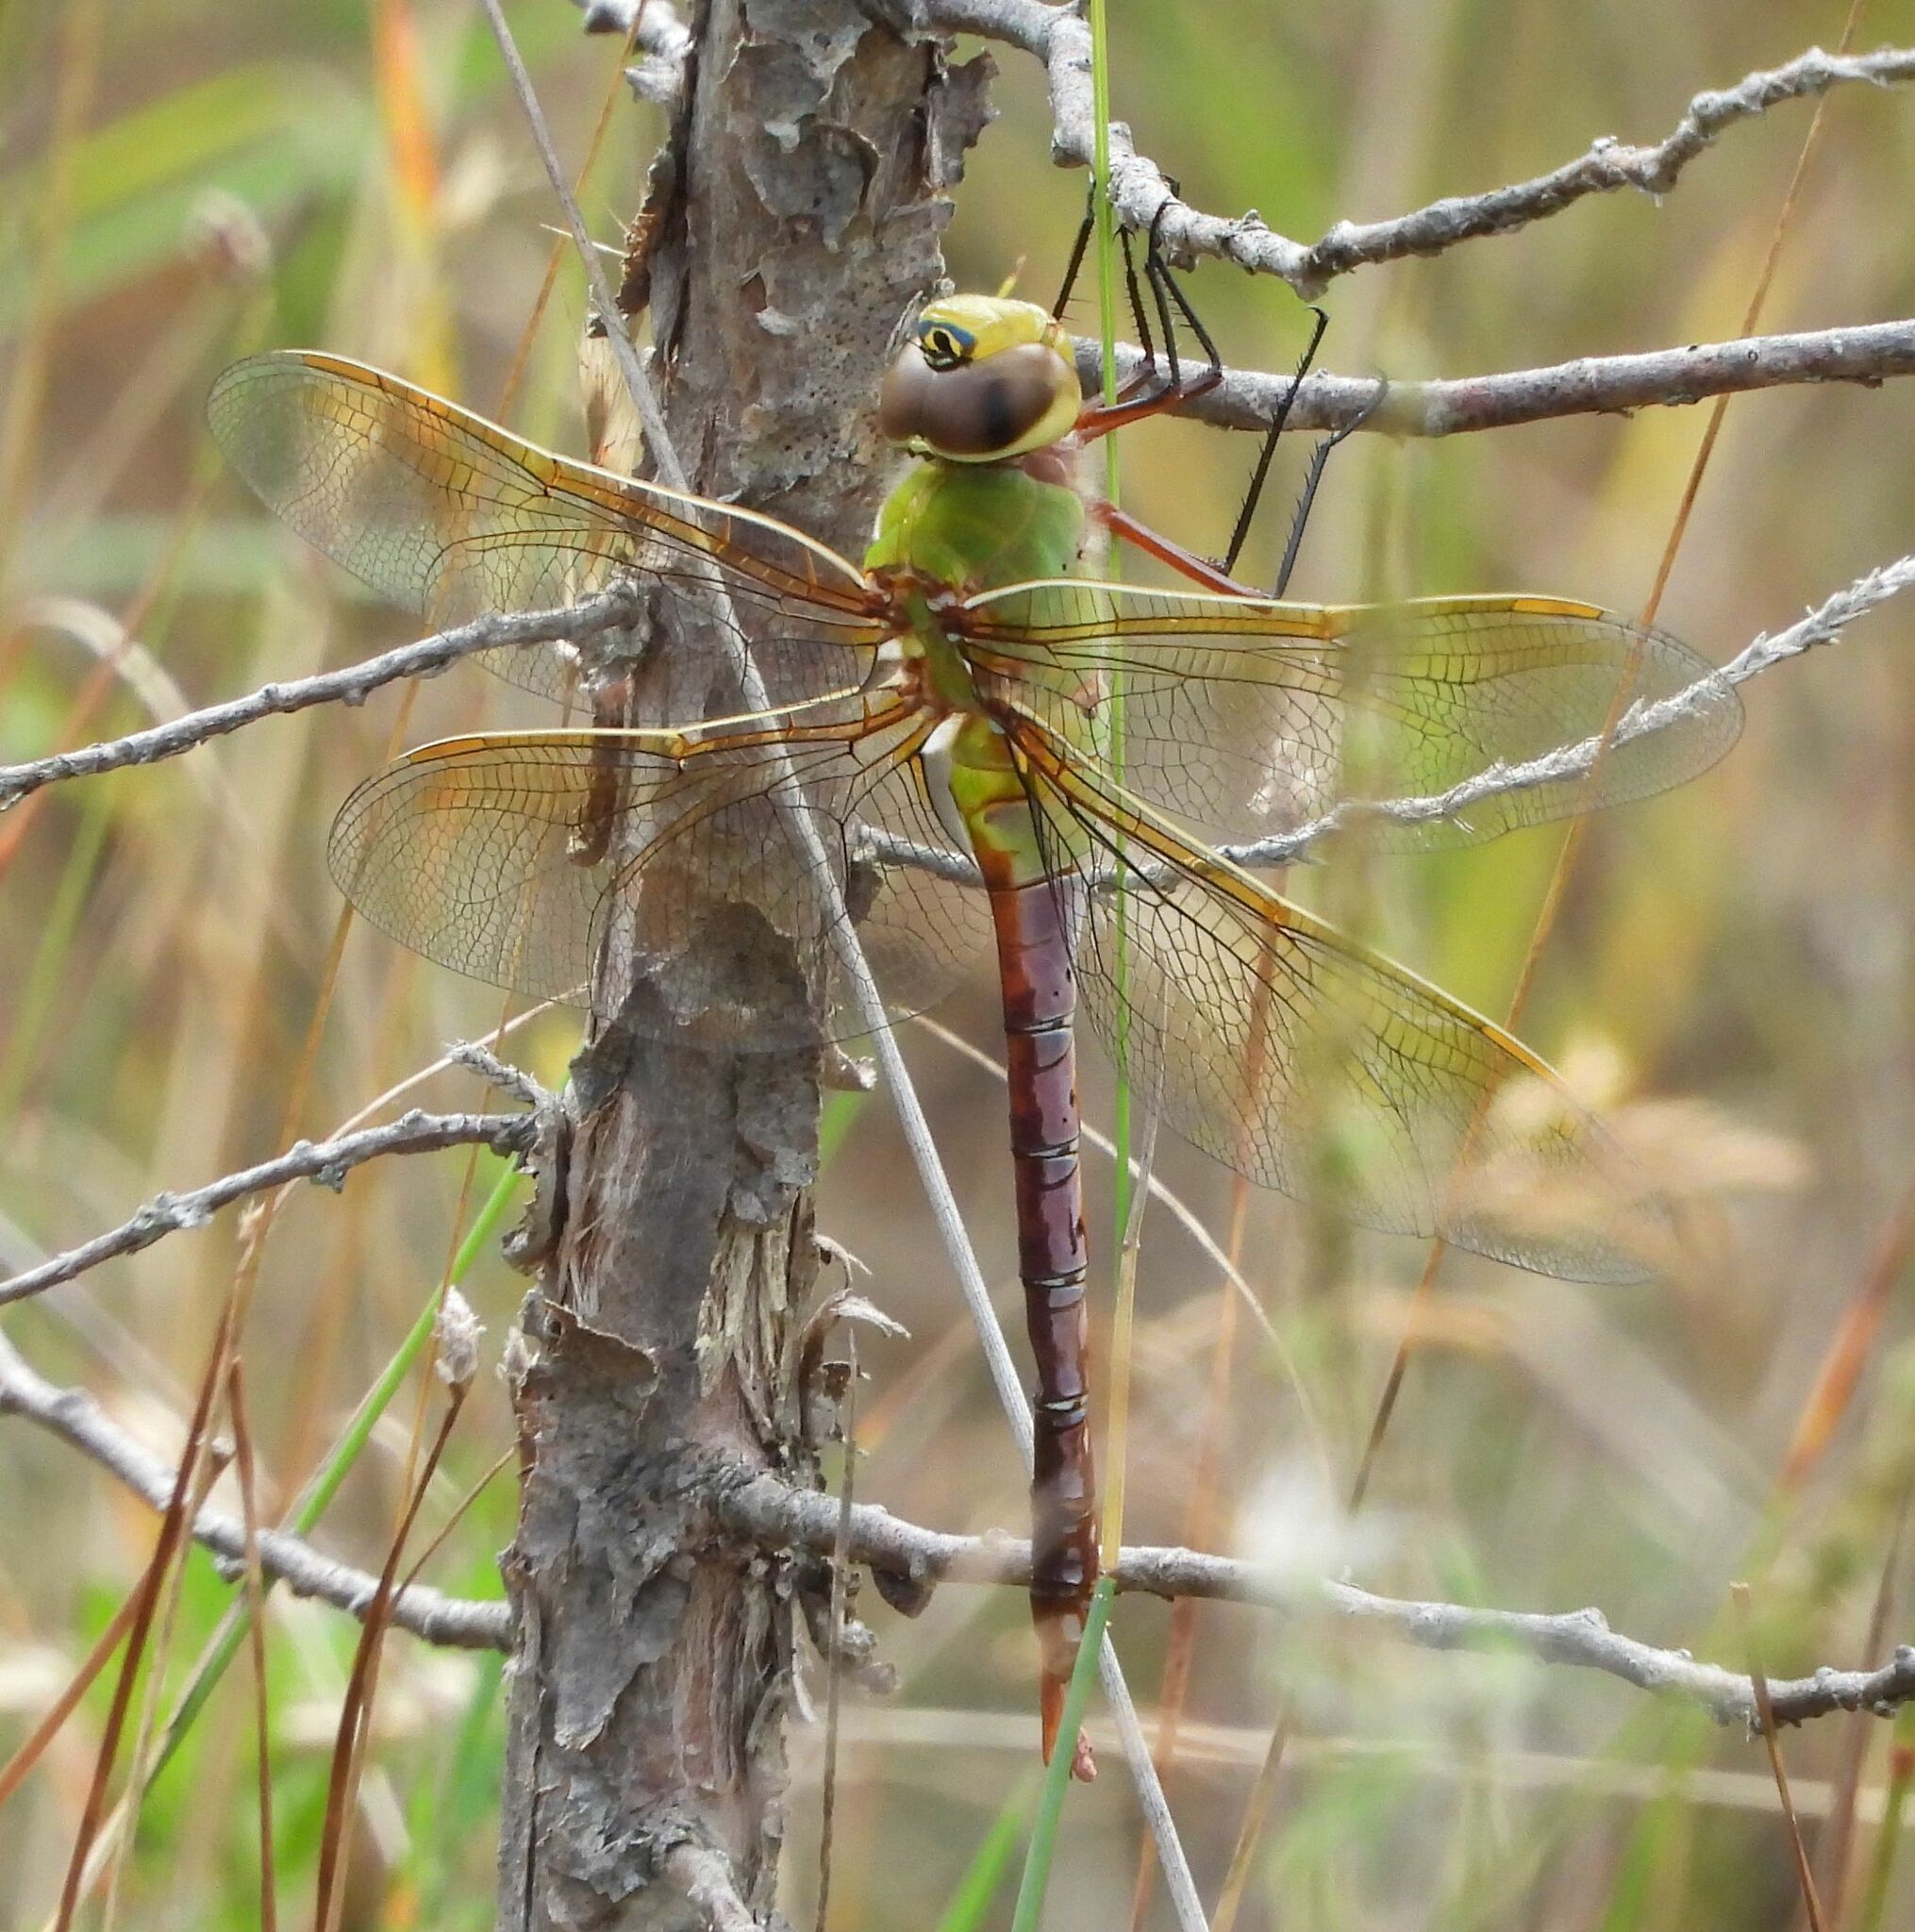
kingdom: Animalia
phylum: Arthropoda
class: Insecta
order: Odonata
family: Aeshnidae
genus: Anax
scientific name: Anax junius
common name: Common green darner
